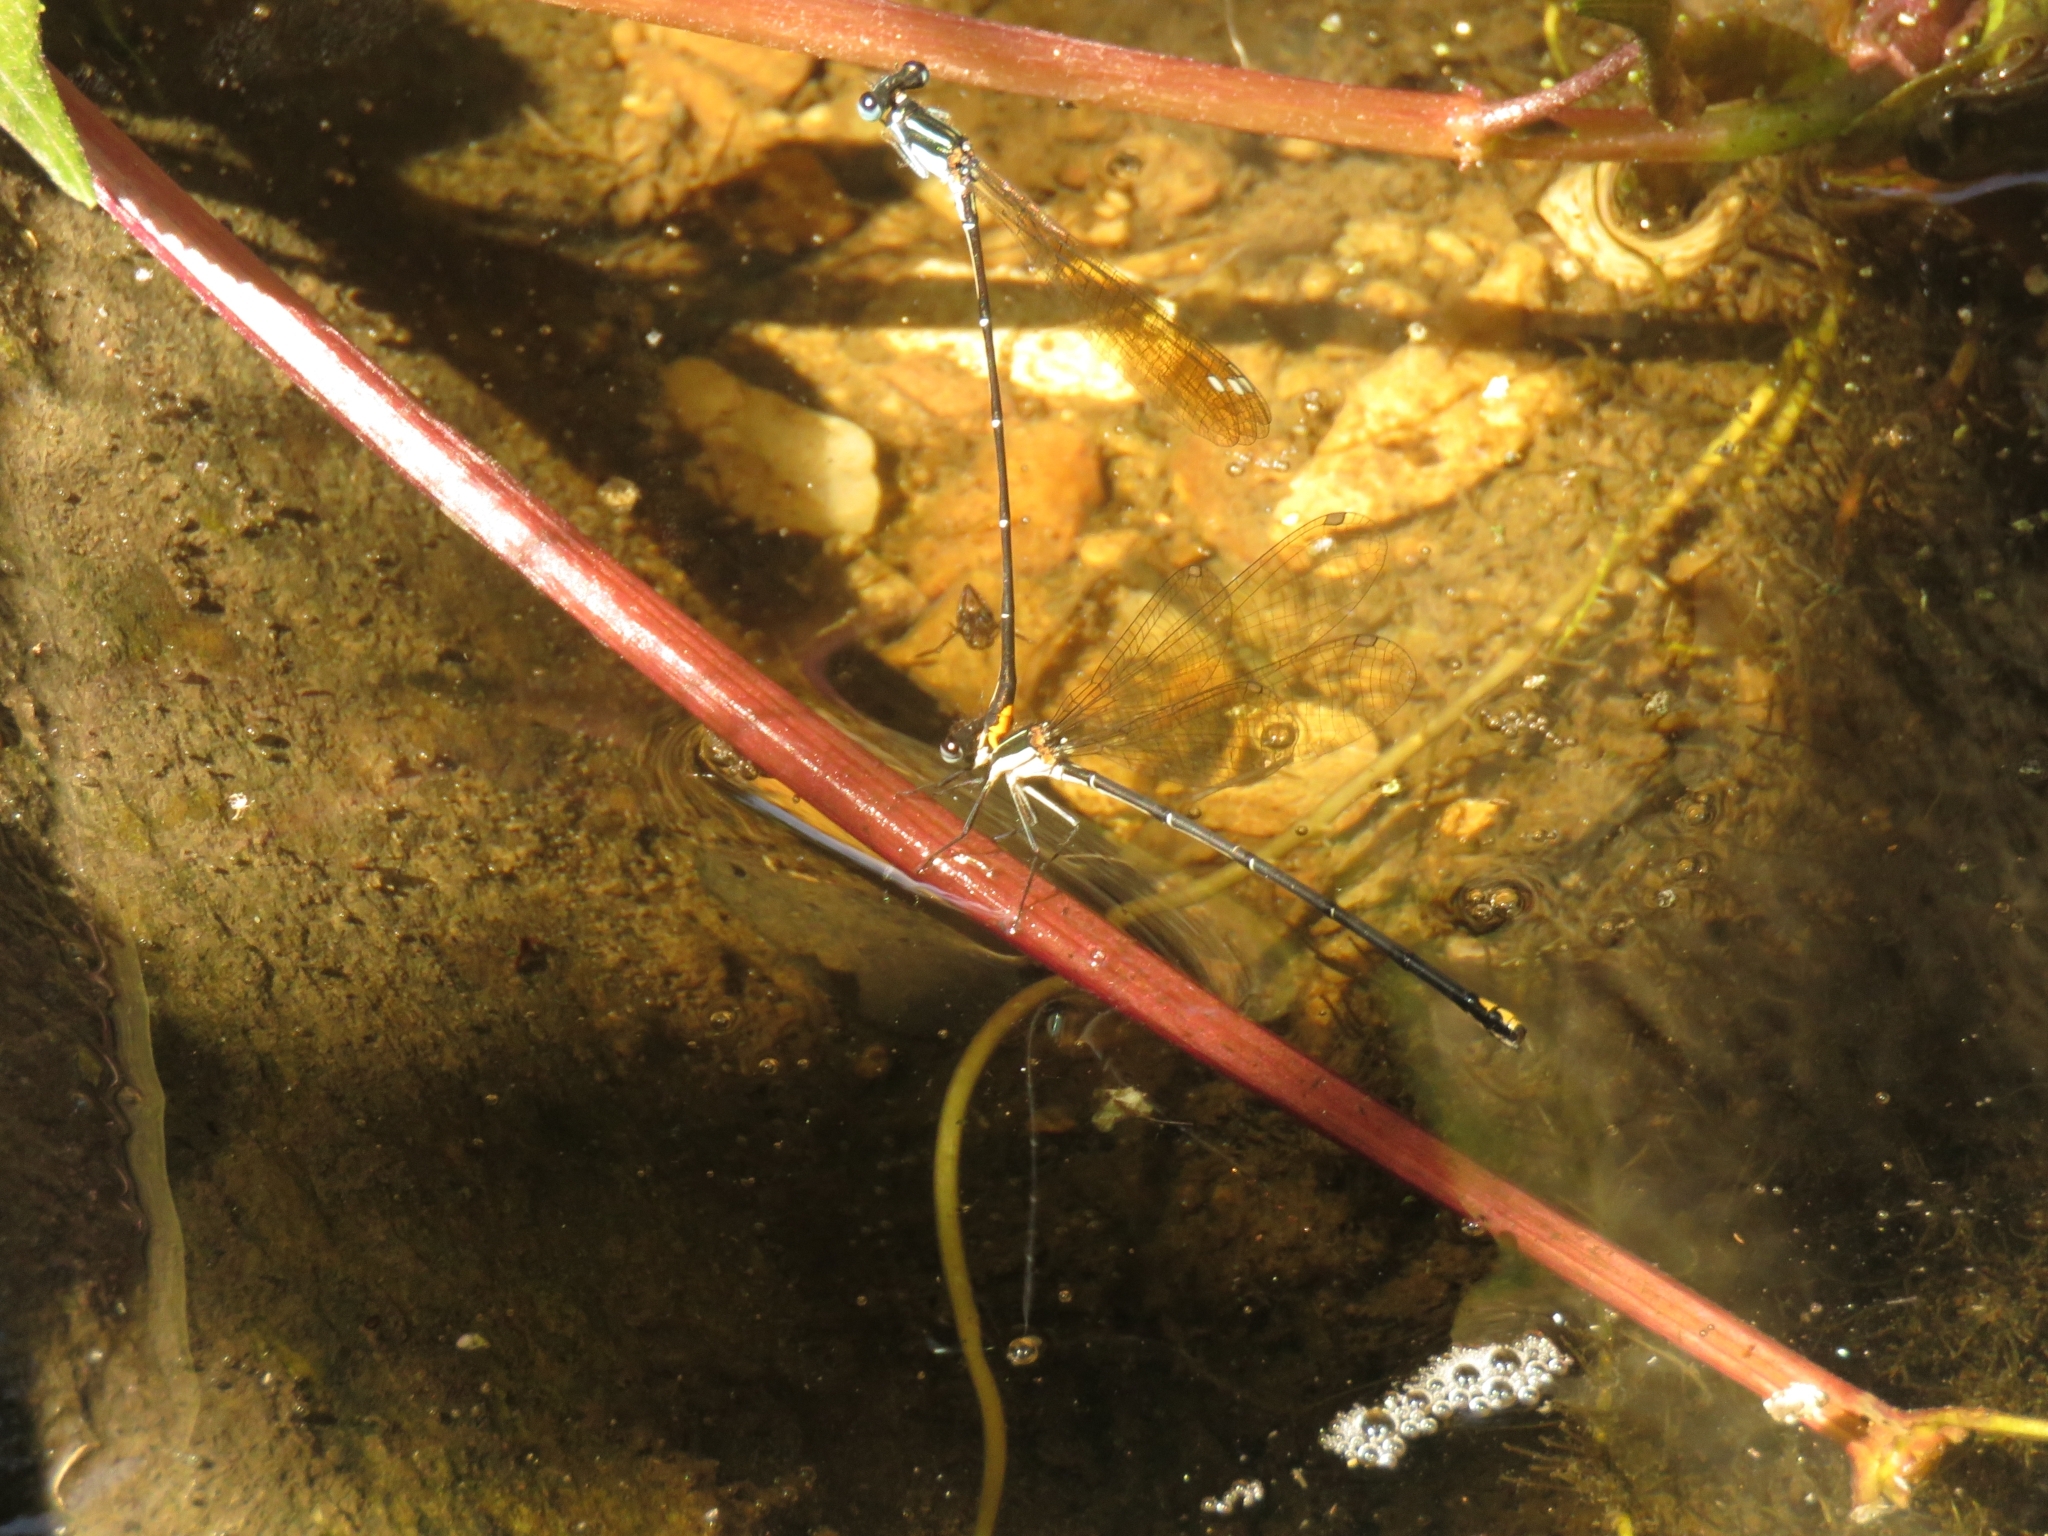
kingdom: Animalia
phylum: Arthropoda
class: Insecta
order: Odonata
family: Platycnemididae
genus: Allocnemis
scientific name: Allocnemis leucosticta
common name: Goldtail
